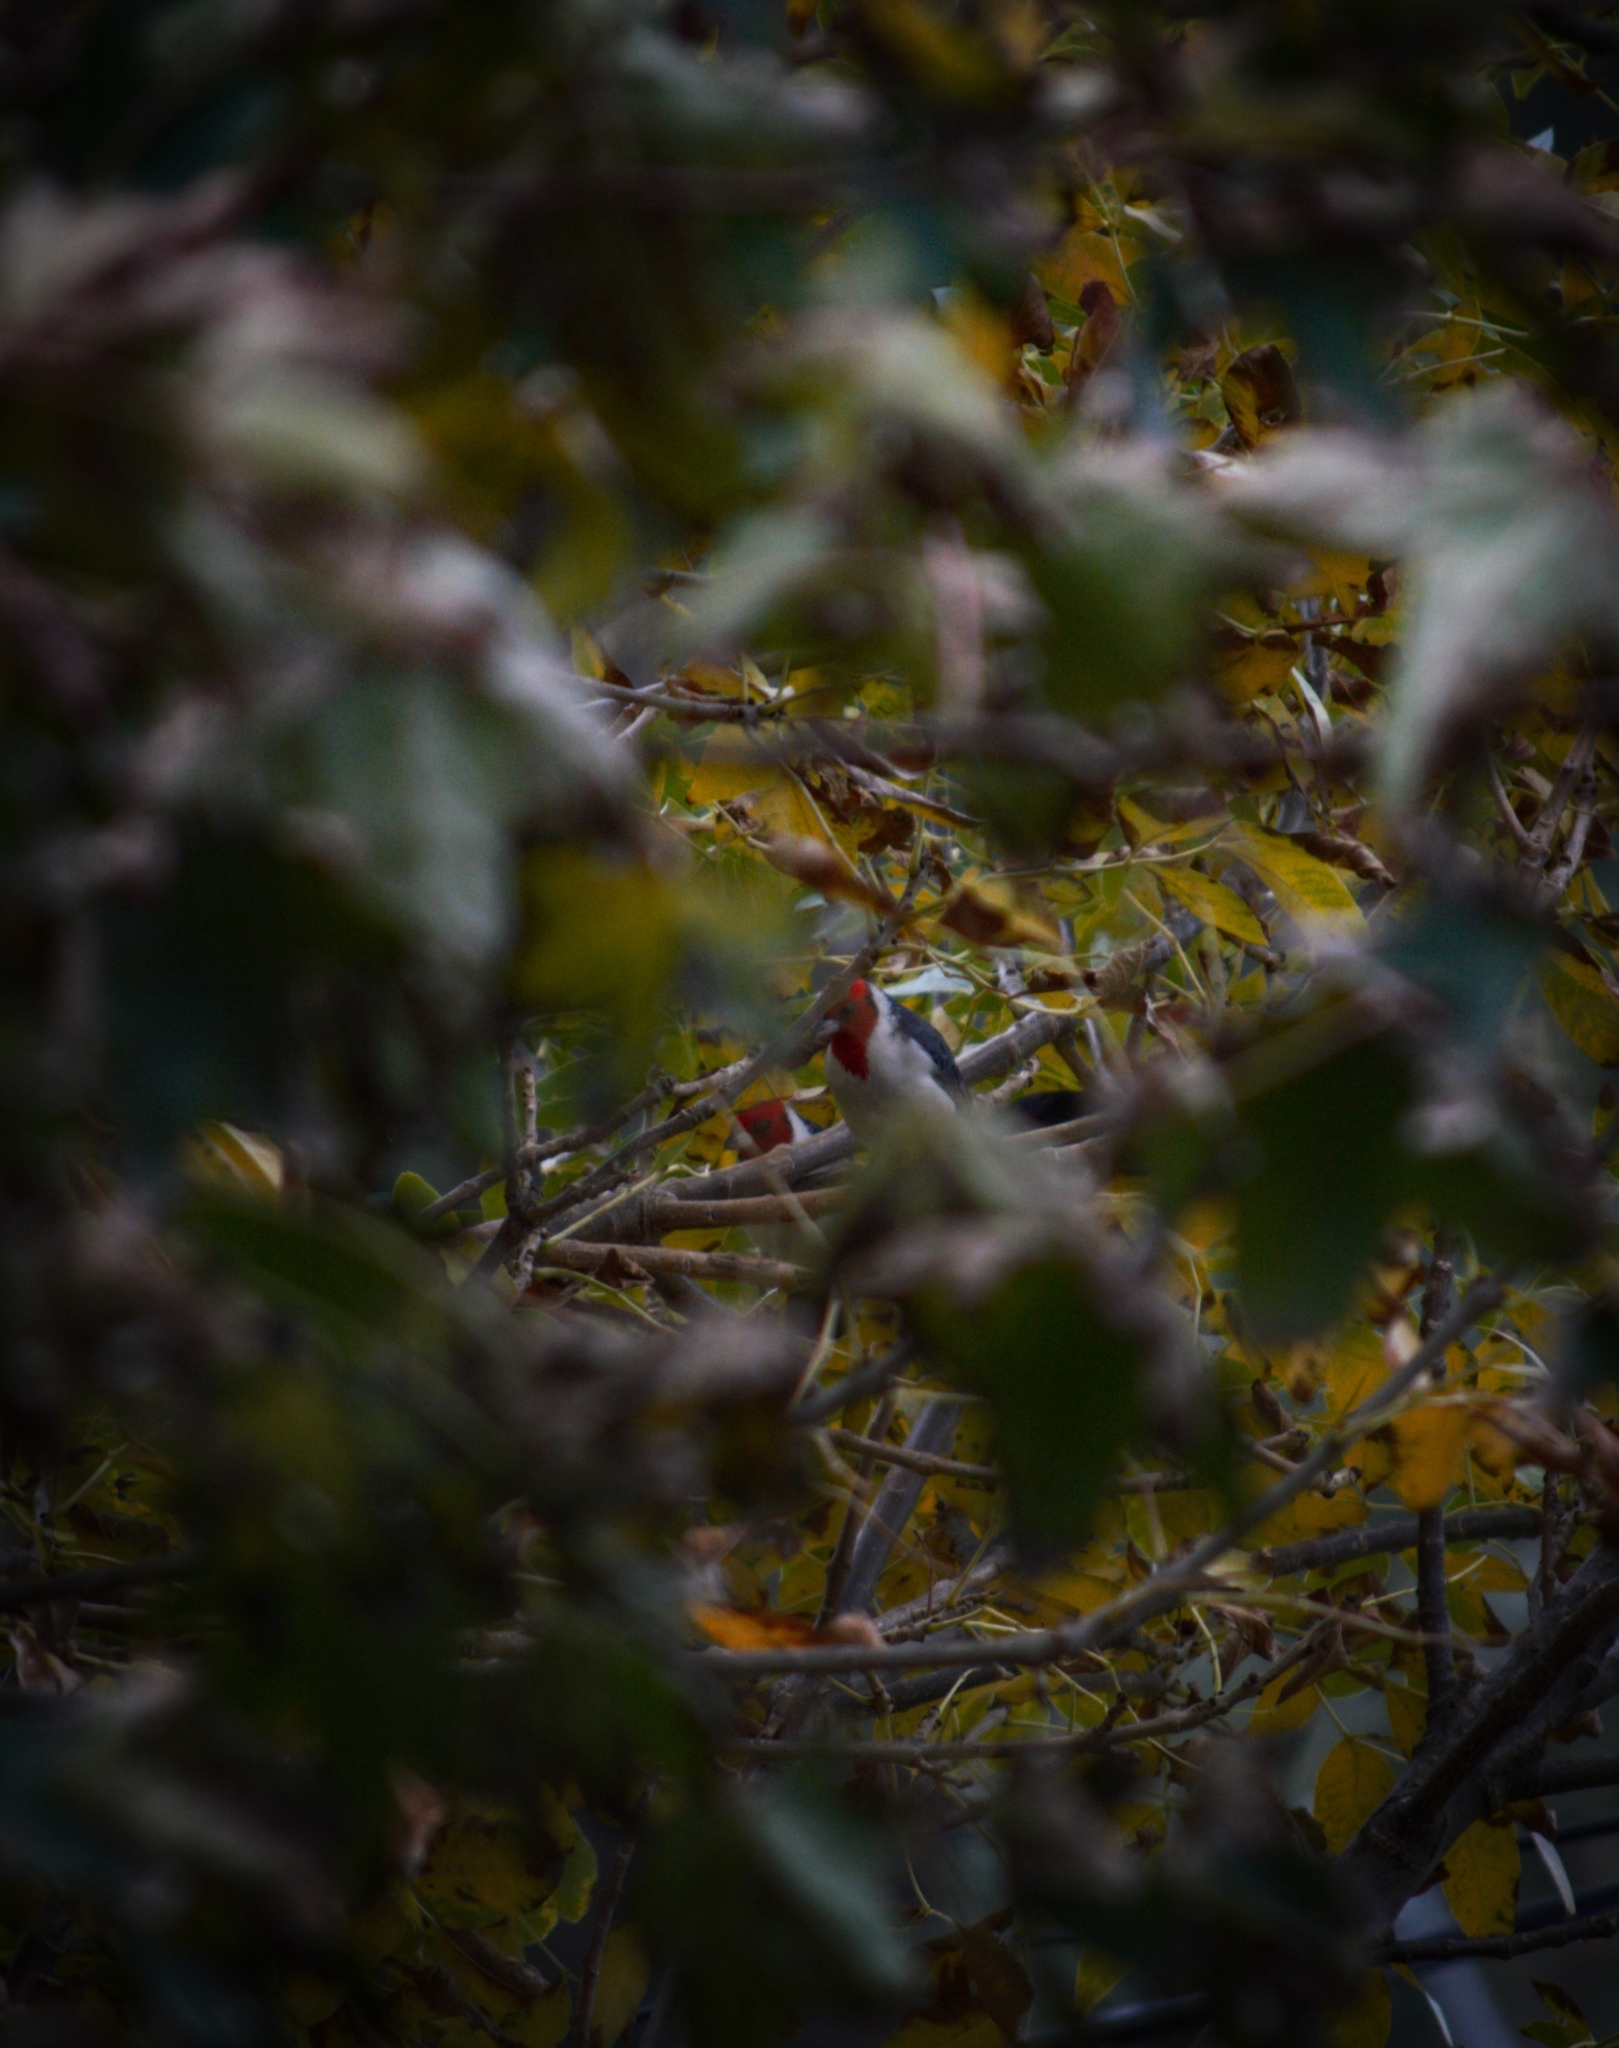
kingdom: Animalia
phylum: Chordata
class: Aves
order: Passeriformes
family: Thraupidae
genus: Paroaria
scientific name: Paroaria coronata
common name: Red-crested cardinal
